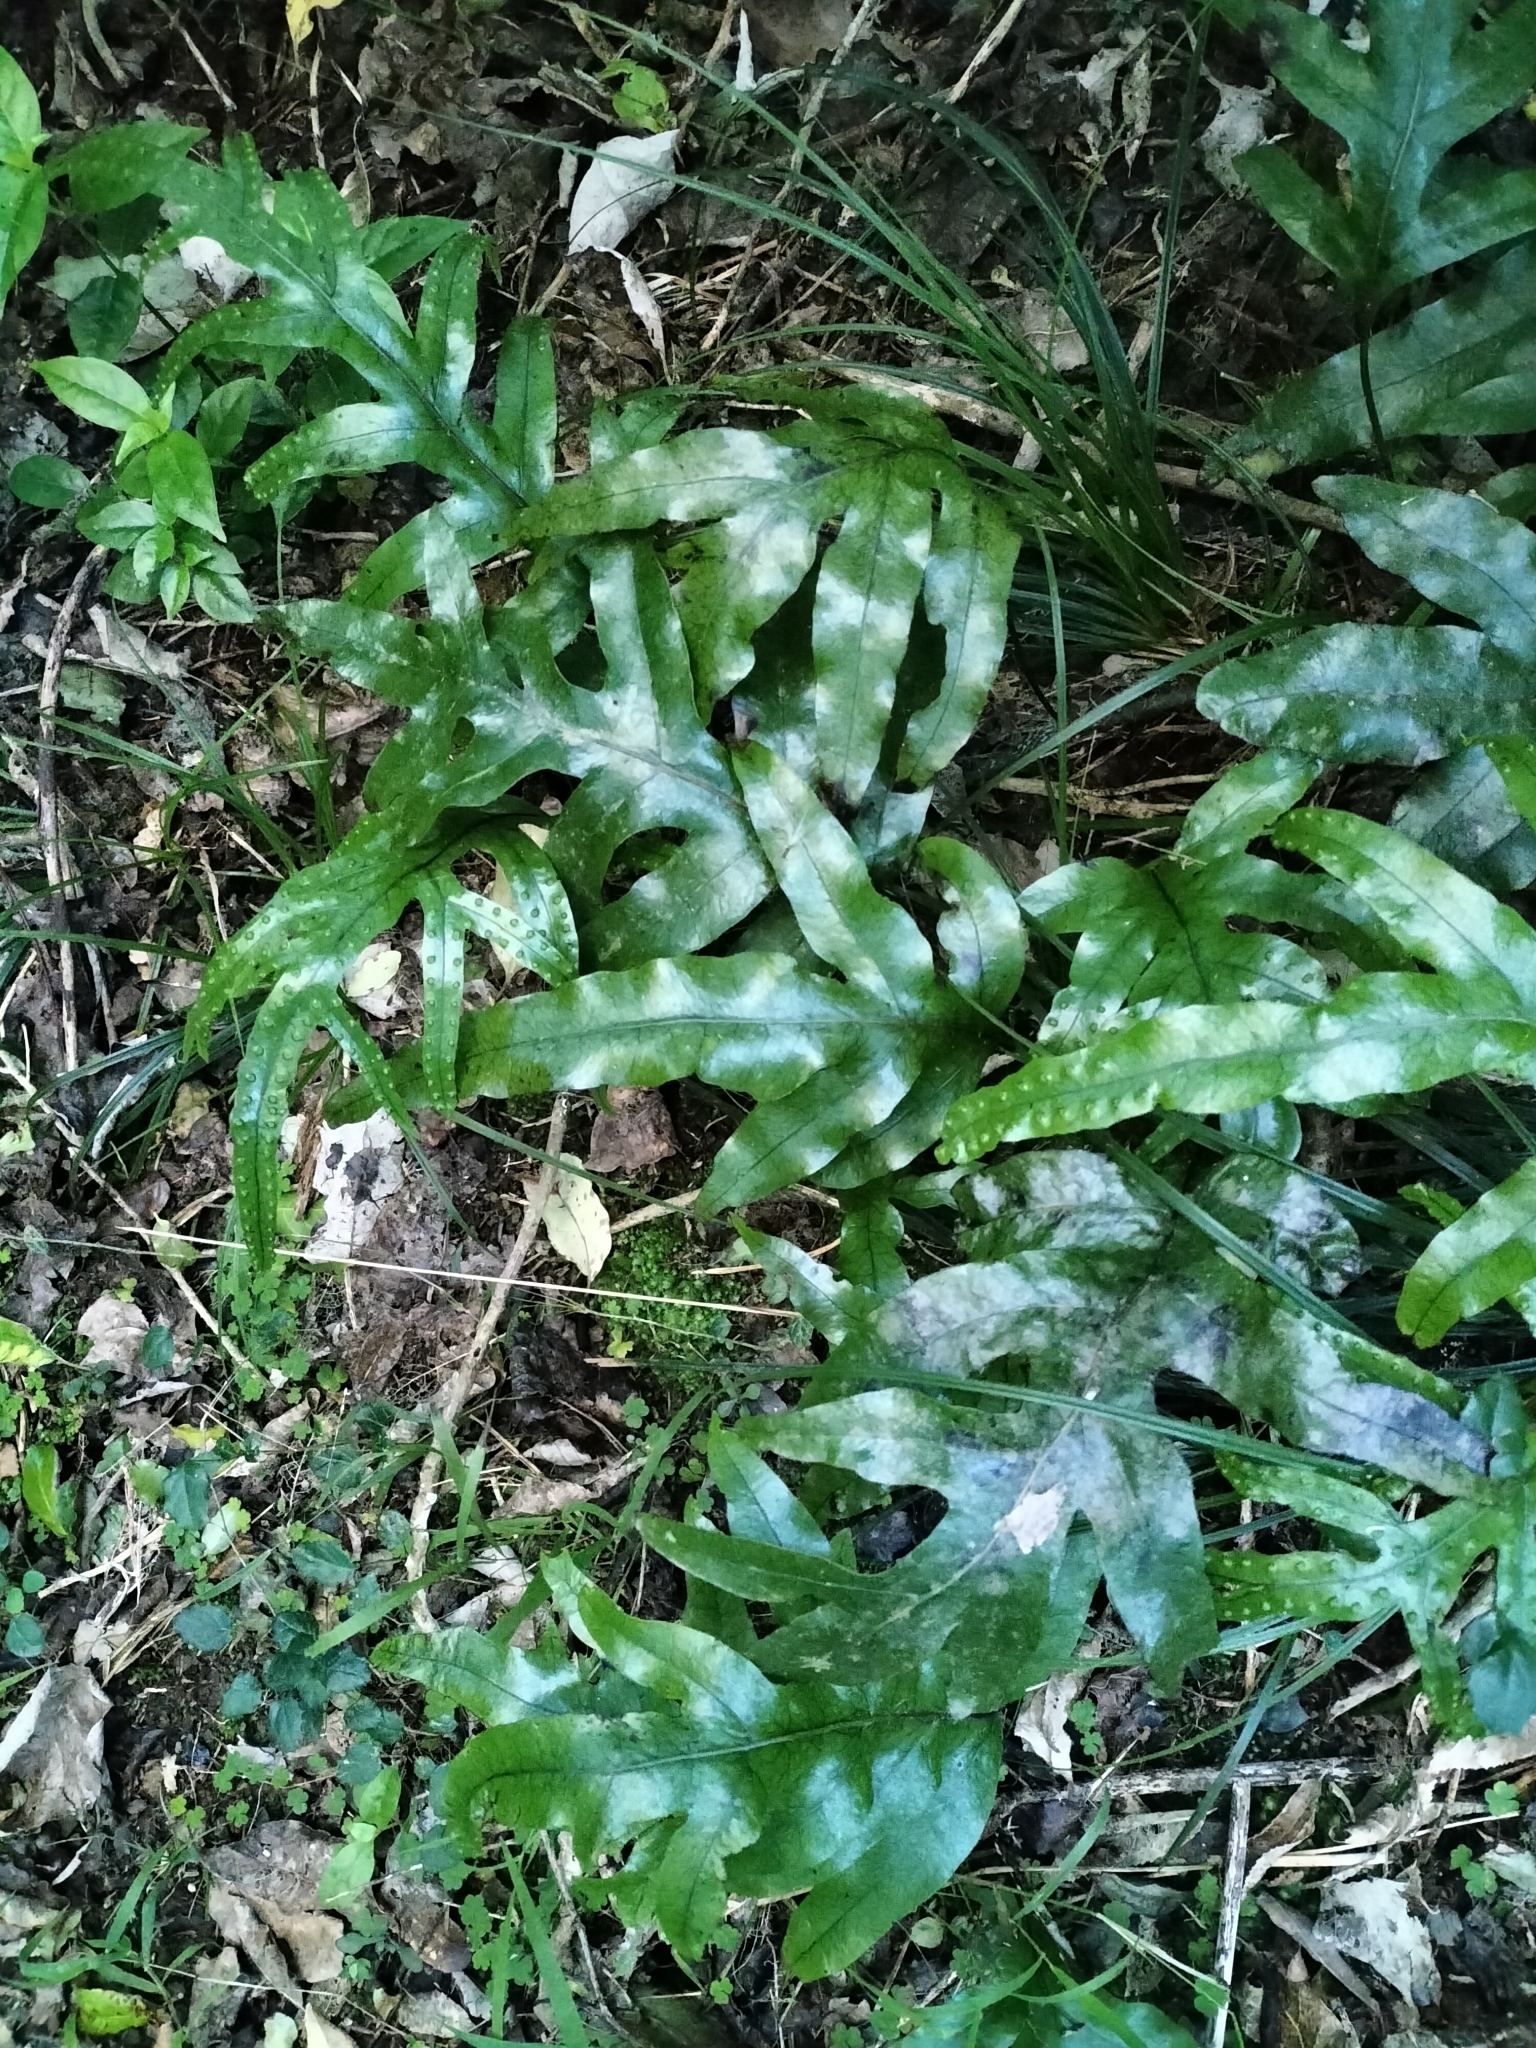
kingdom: Plantae
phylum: Tracheophyta
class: Polypodiopsida
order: Polypodiales
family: Polypodiaceae
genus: Lecanopteris
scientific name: Lecanopteris pustulata
